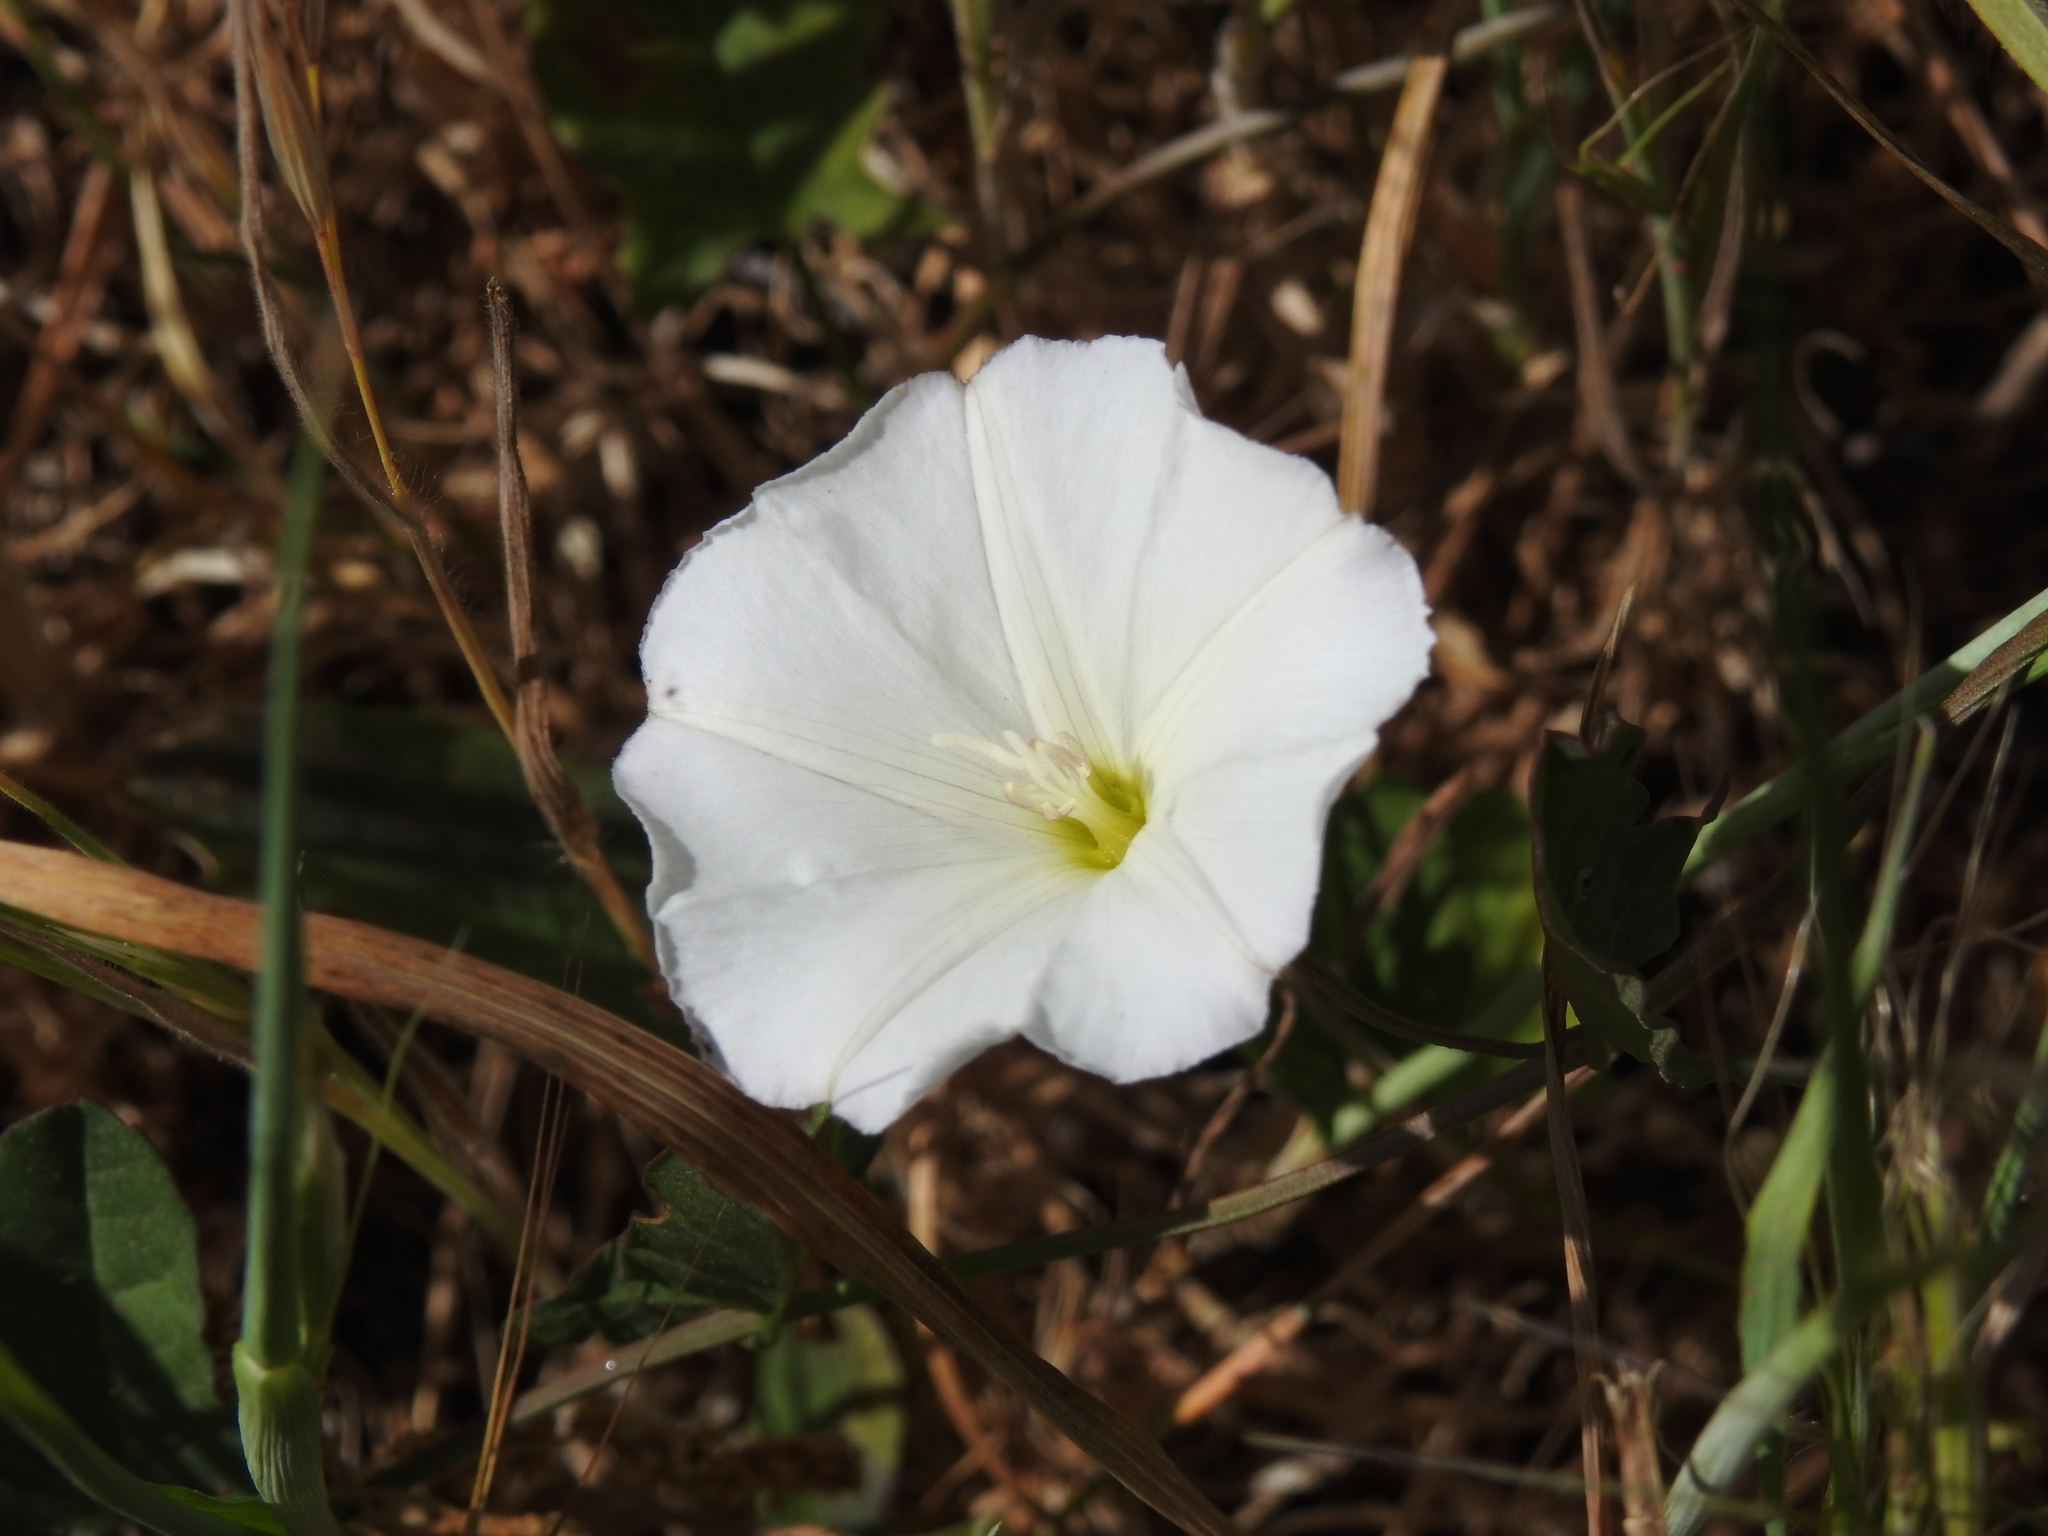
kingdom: Plantae
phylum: Tracheophyta
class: Magnoliopsida
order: Solanales
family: Convolvulaceae
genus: Convolvulus
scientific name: Convolvulus arvensis
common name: Field bindweed
